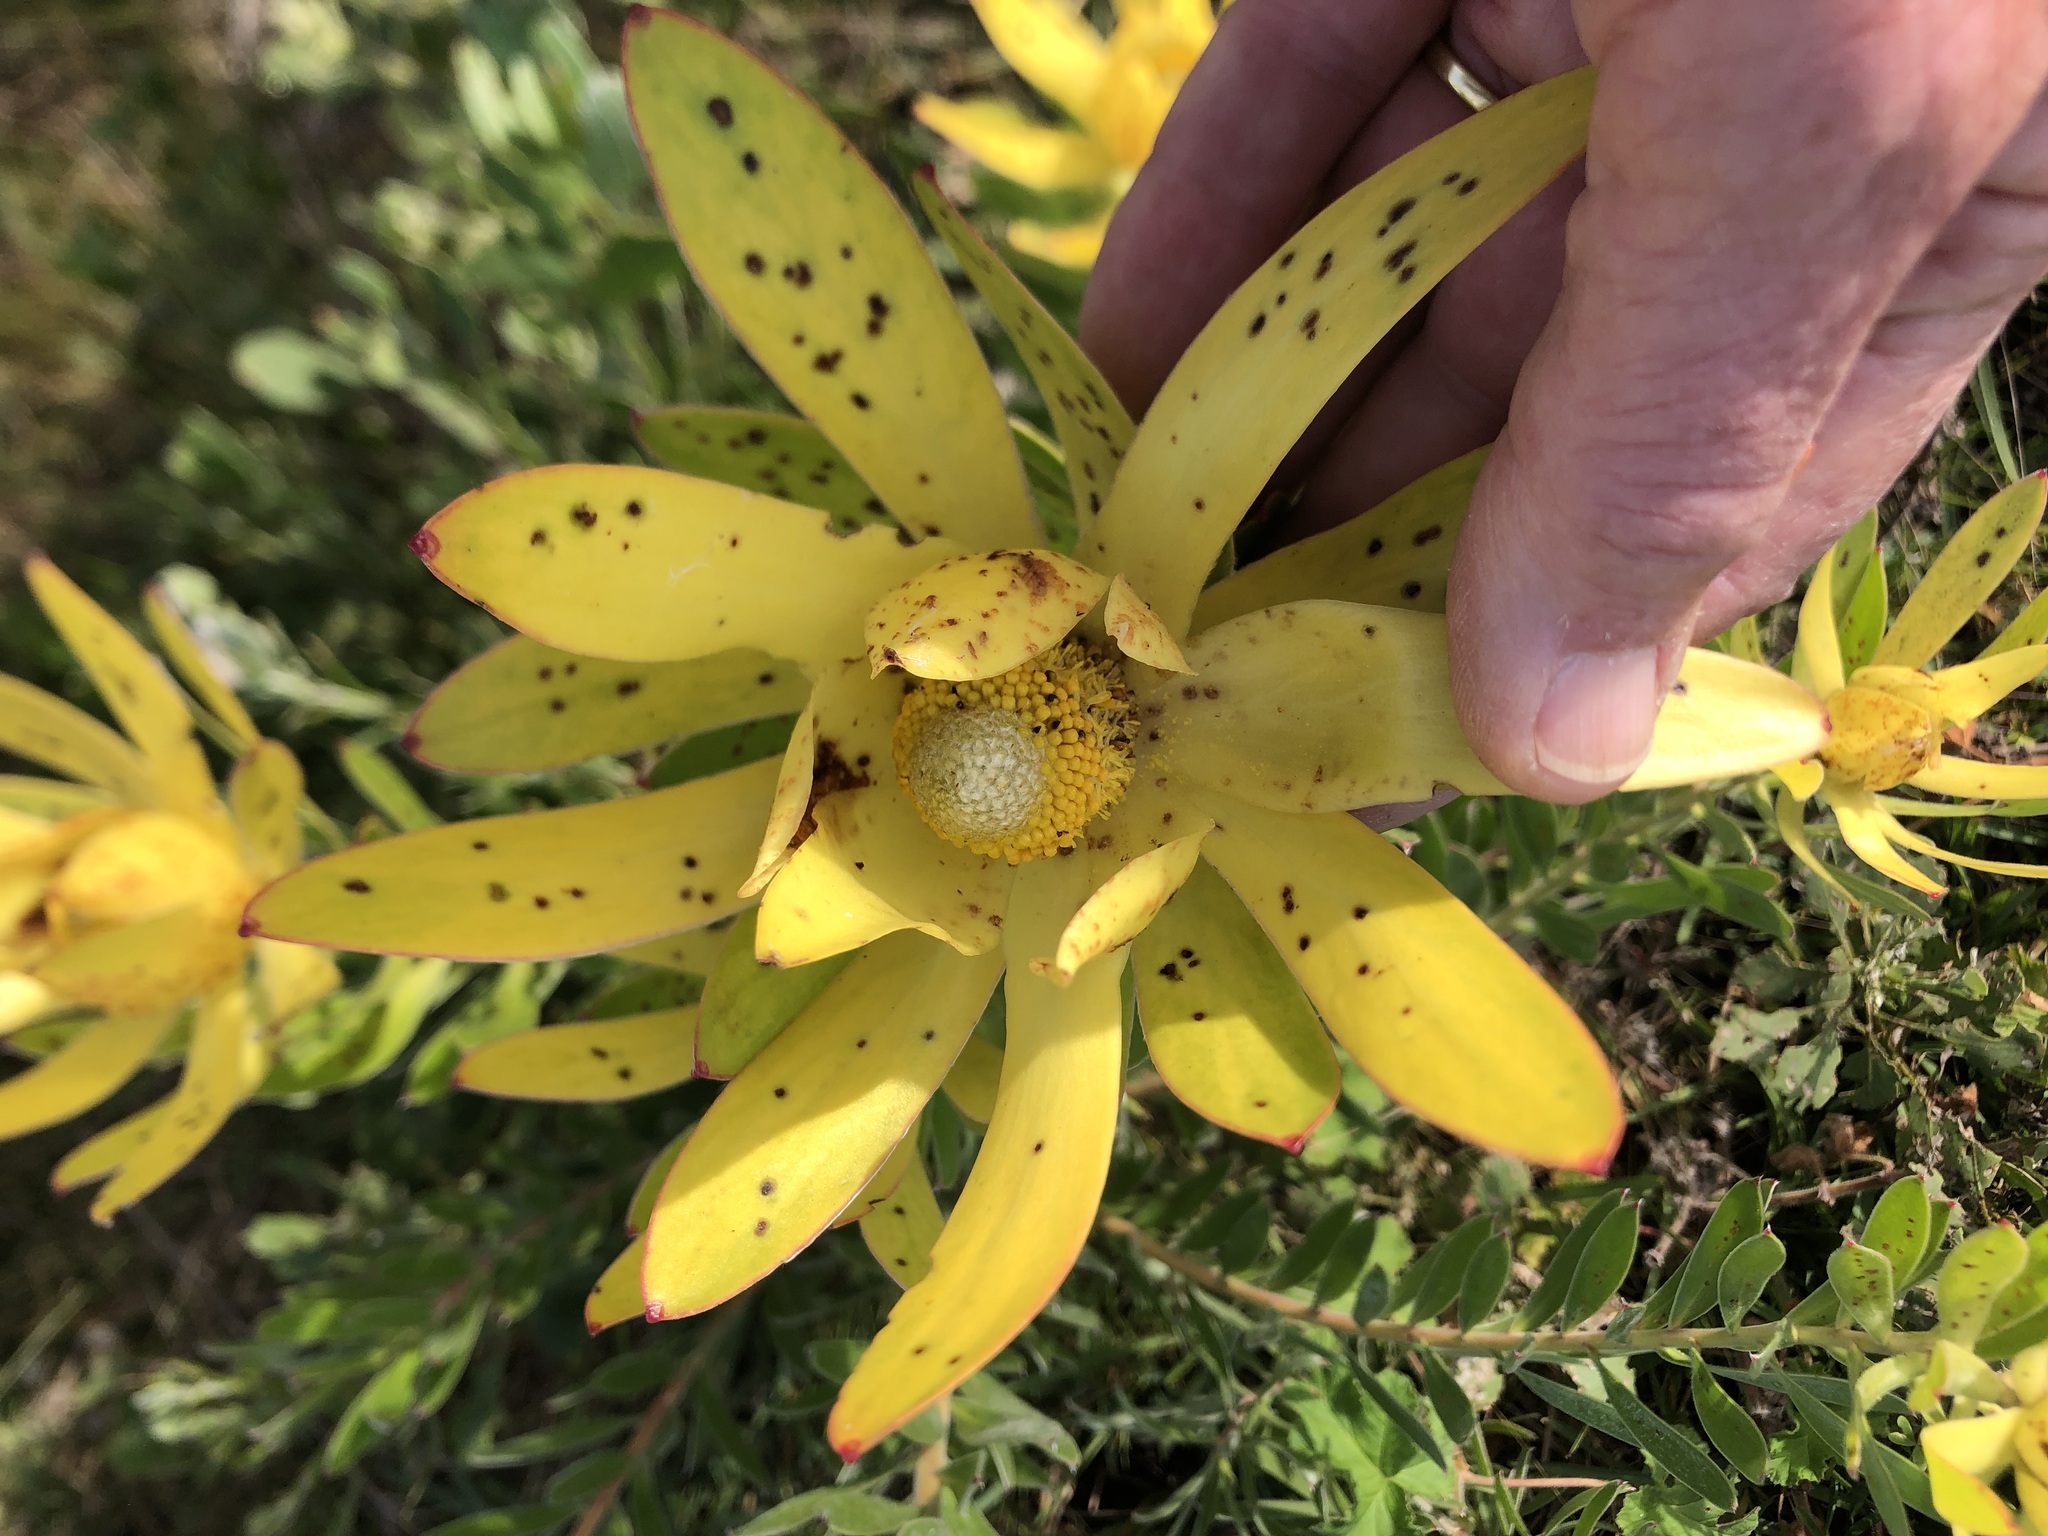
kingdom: Plantae
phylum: Tracheophyta
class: Magnoliopsida
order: Proteales
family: Proteaceae
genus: Leucadendron
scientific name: Leucadendron laureolum
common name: Golden sunshinebush
